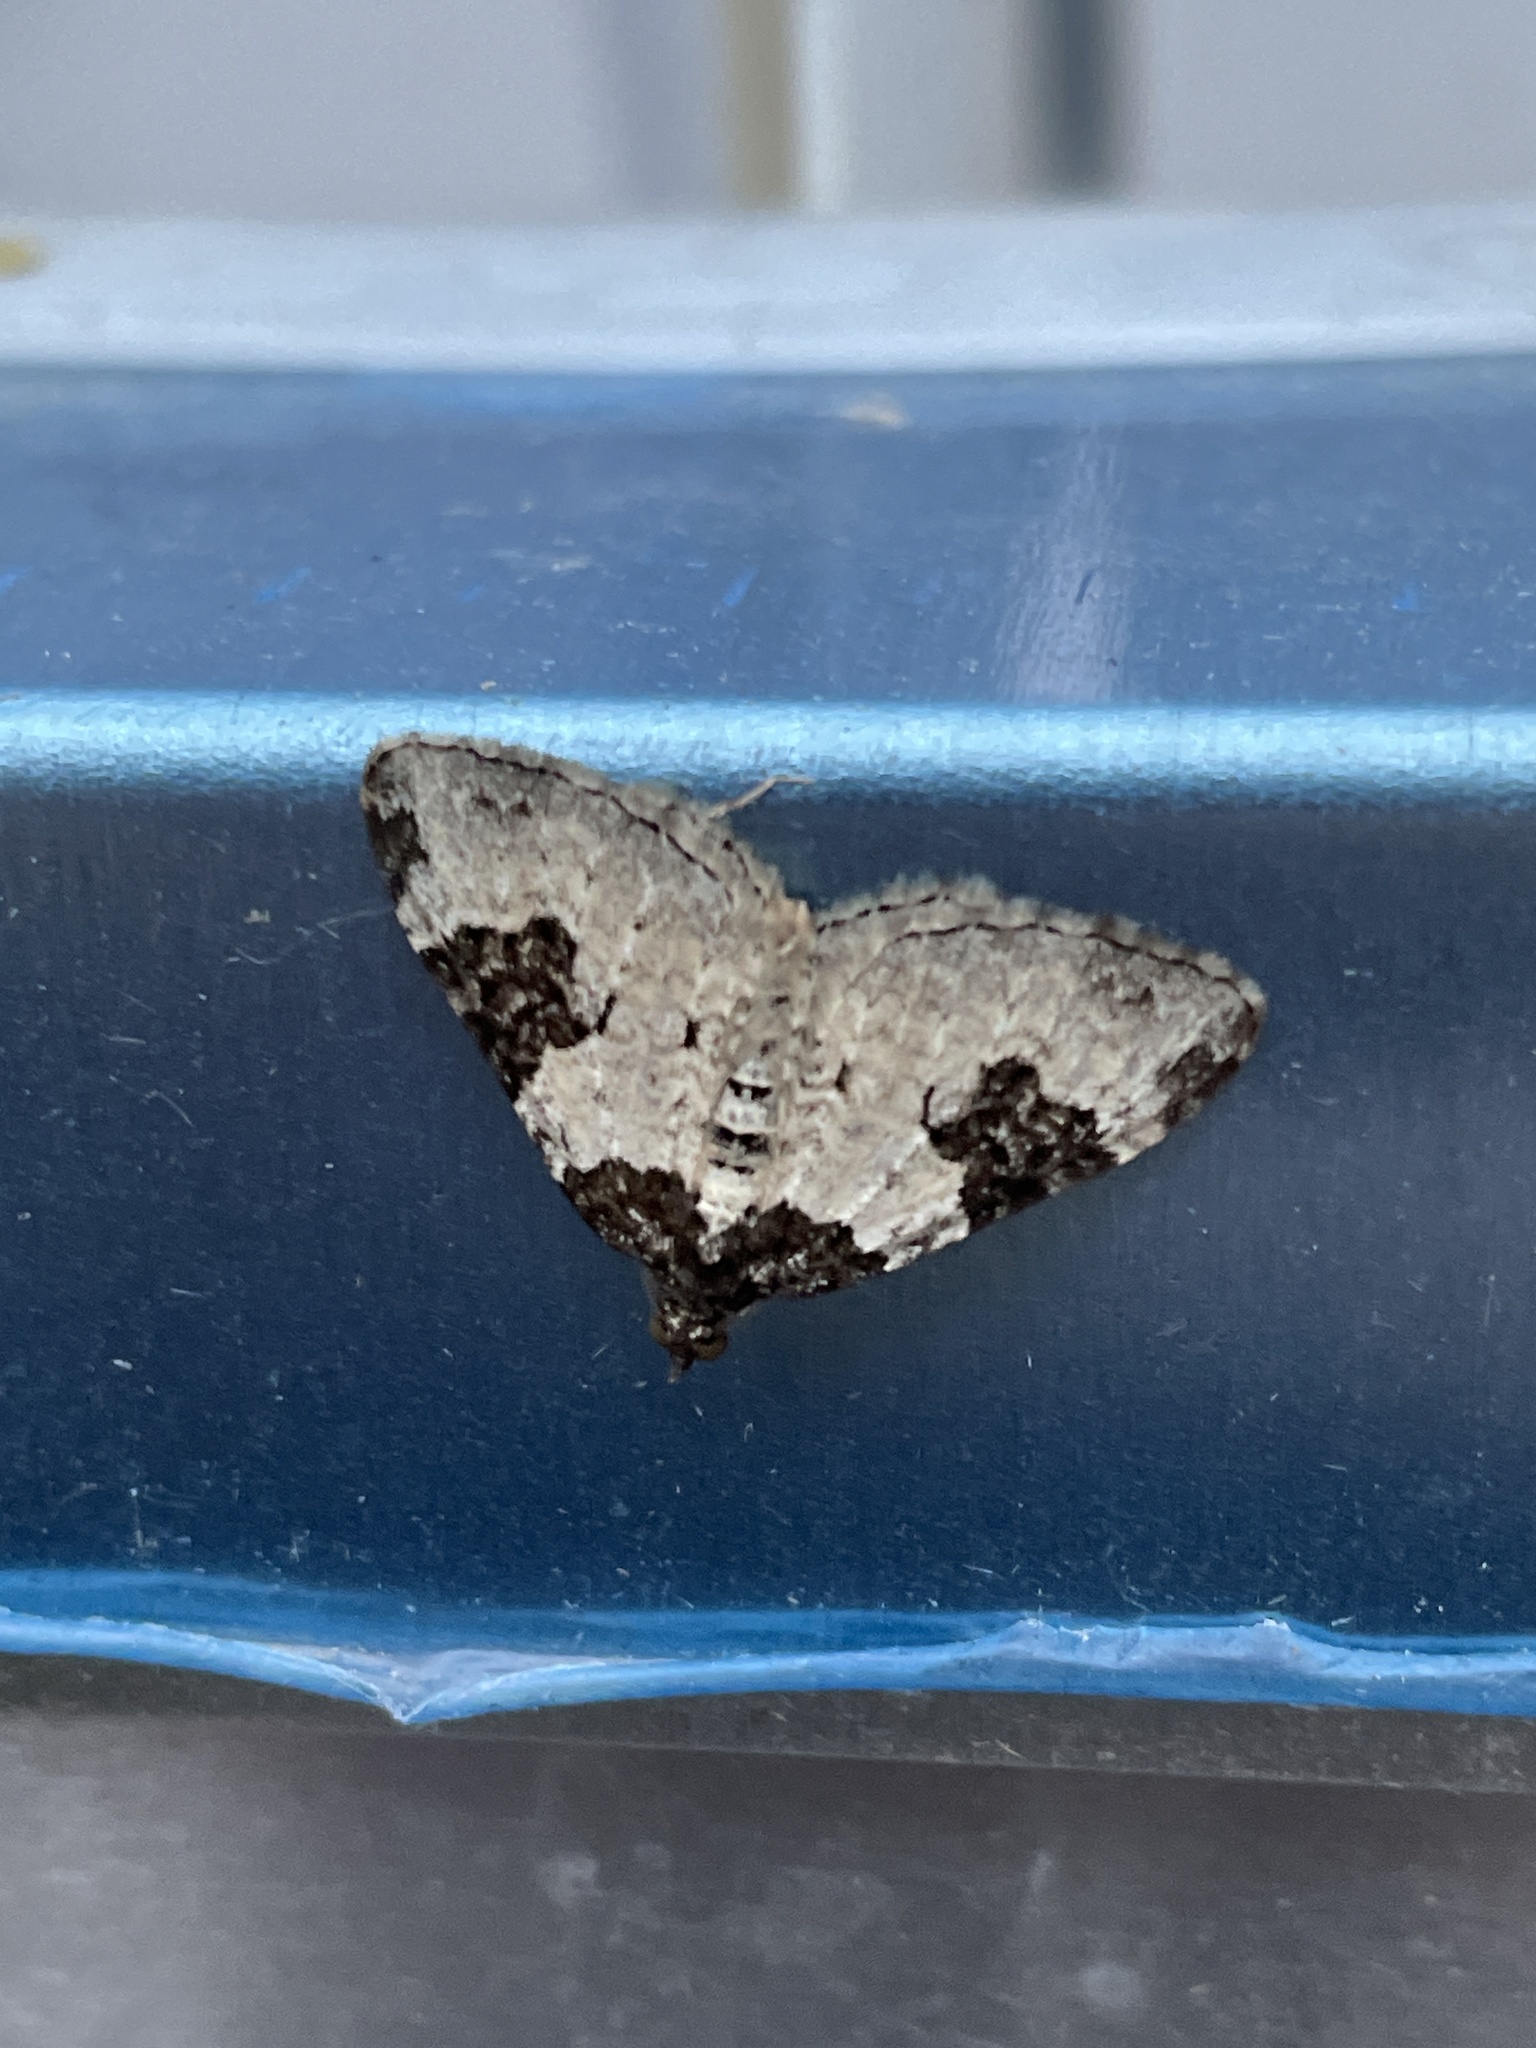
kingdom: Animalia
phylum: Arthropoda
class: Insecta
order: Lepidoptera
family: Geometridae
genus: Xanthorhoe
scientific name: Xanthorhoe fluctuata
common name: Garden carpet
